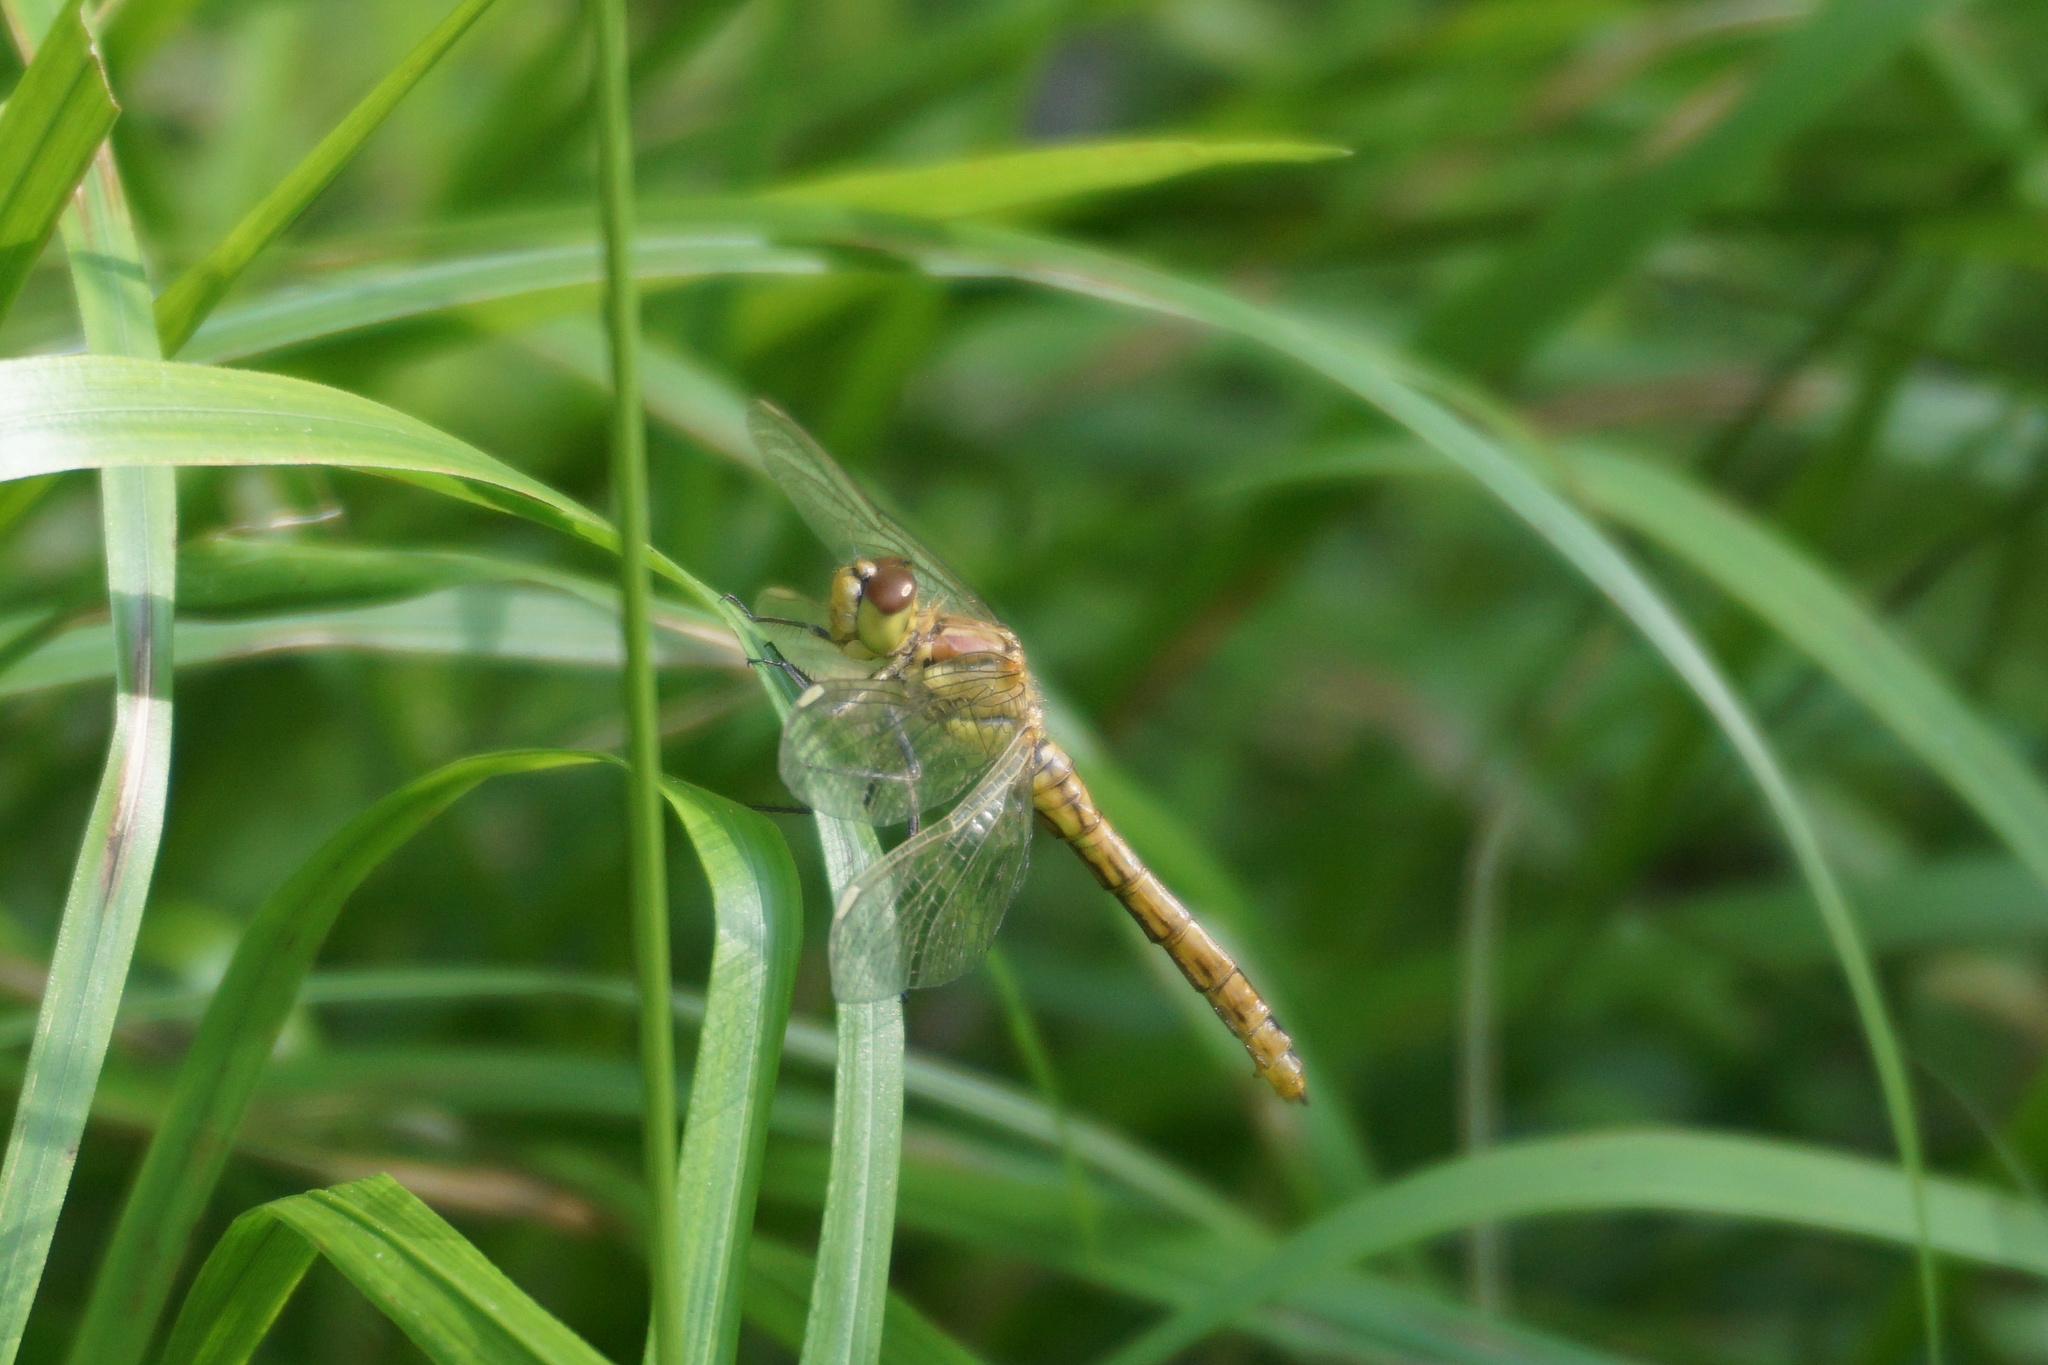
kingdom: Animalia
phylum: Arthropoda
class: Insecta
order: Odonata
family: Libellulidae
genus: Sympetrum
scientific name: Sympetrum vulgatum
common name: Vagrant darter
